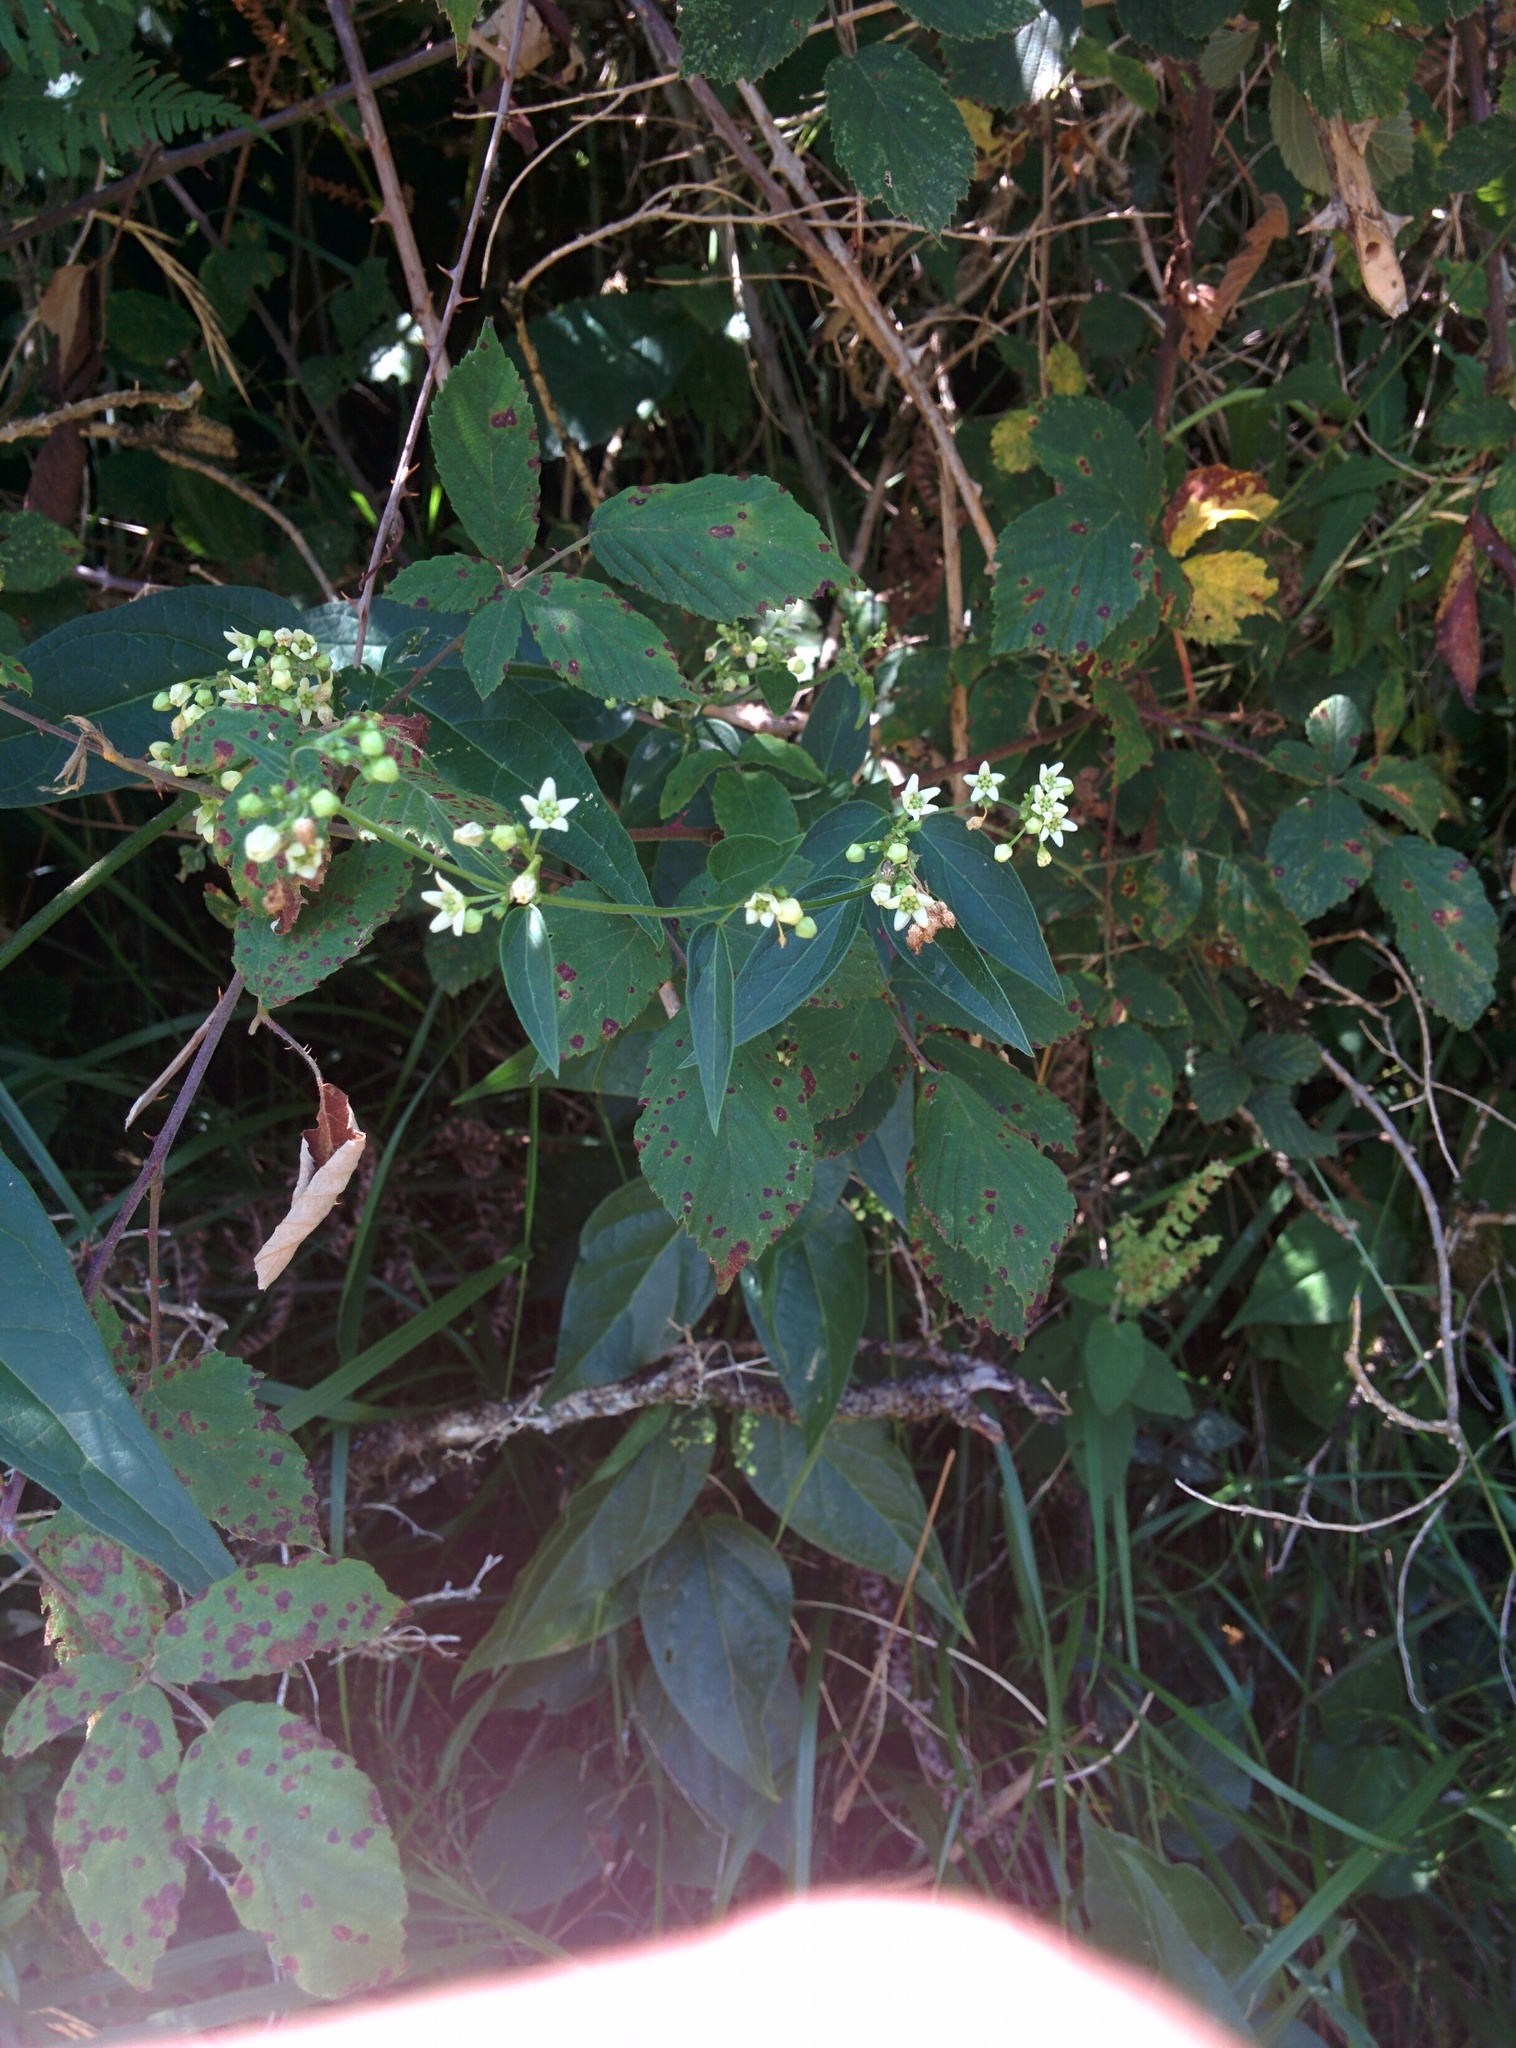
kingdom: Plantae
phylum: Tracheophyta
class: Magnoliopsida
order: Gentianales
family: Apocynaceae
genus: Vincetoxicum
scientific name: Vincetoxicum hirundinaria
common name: White swallowwort
